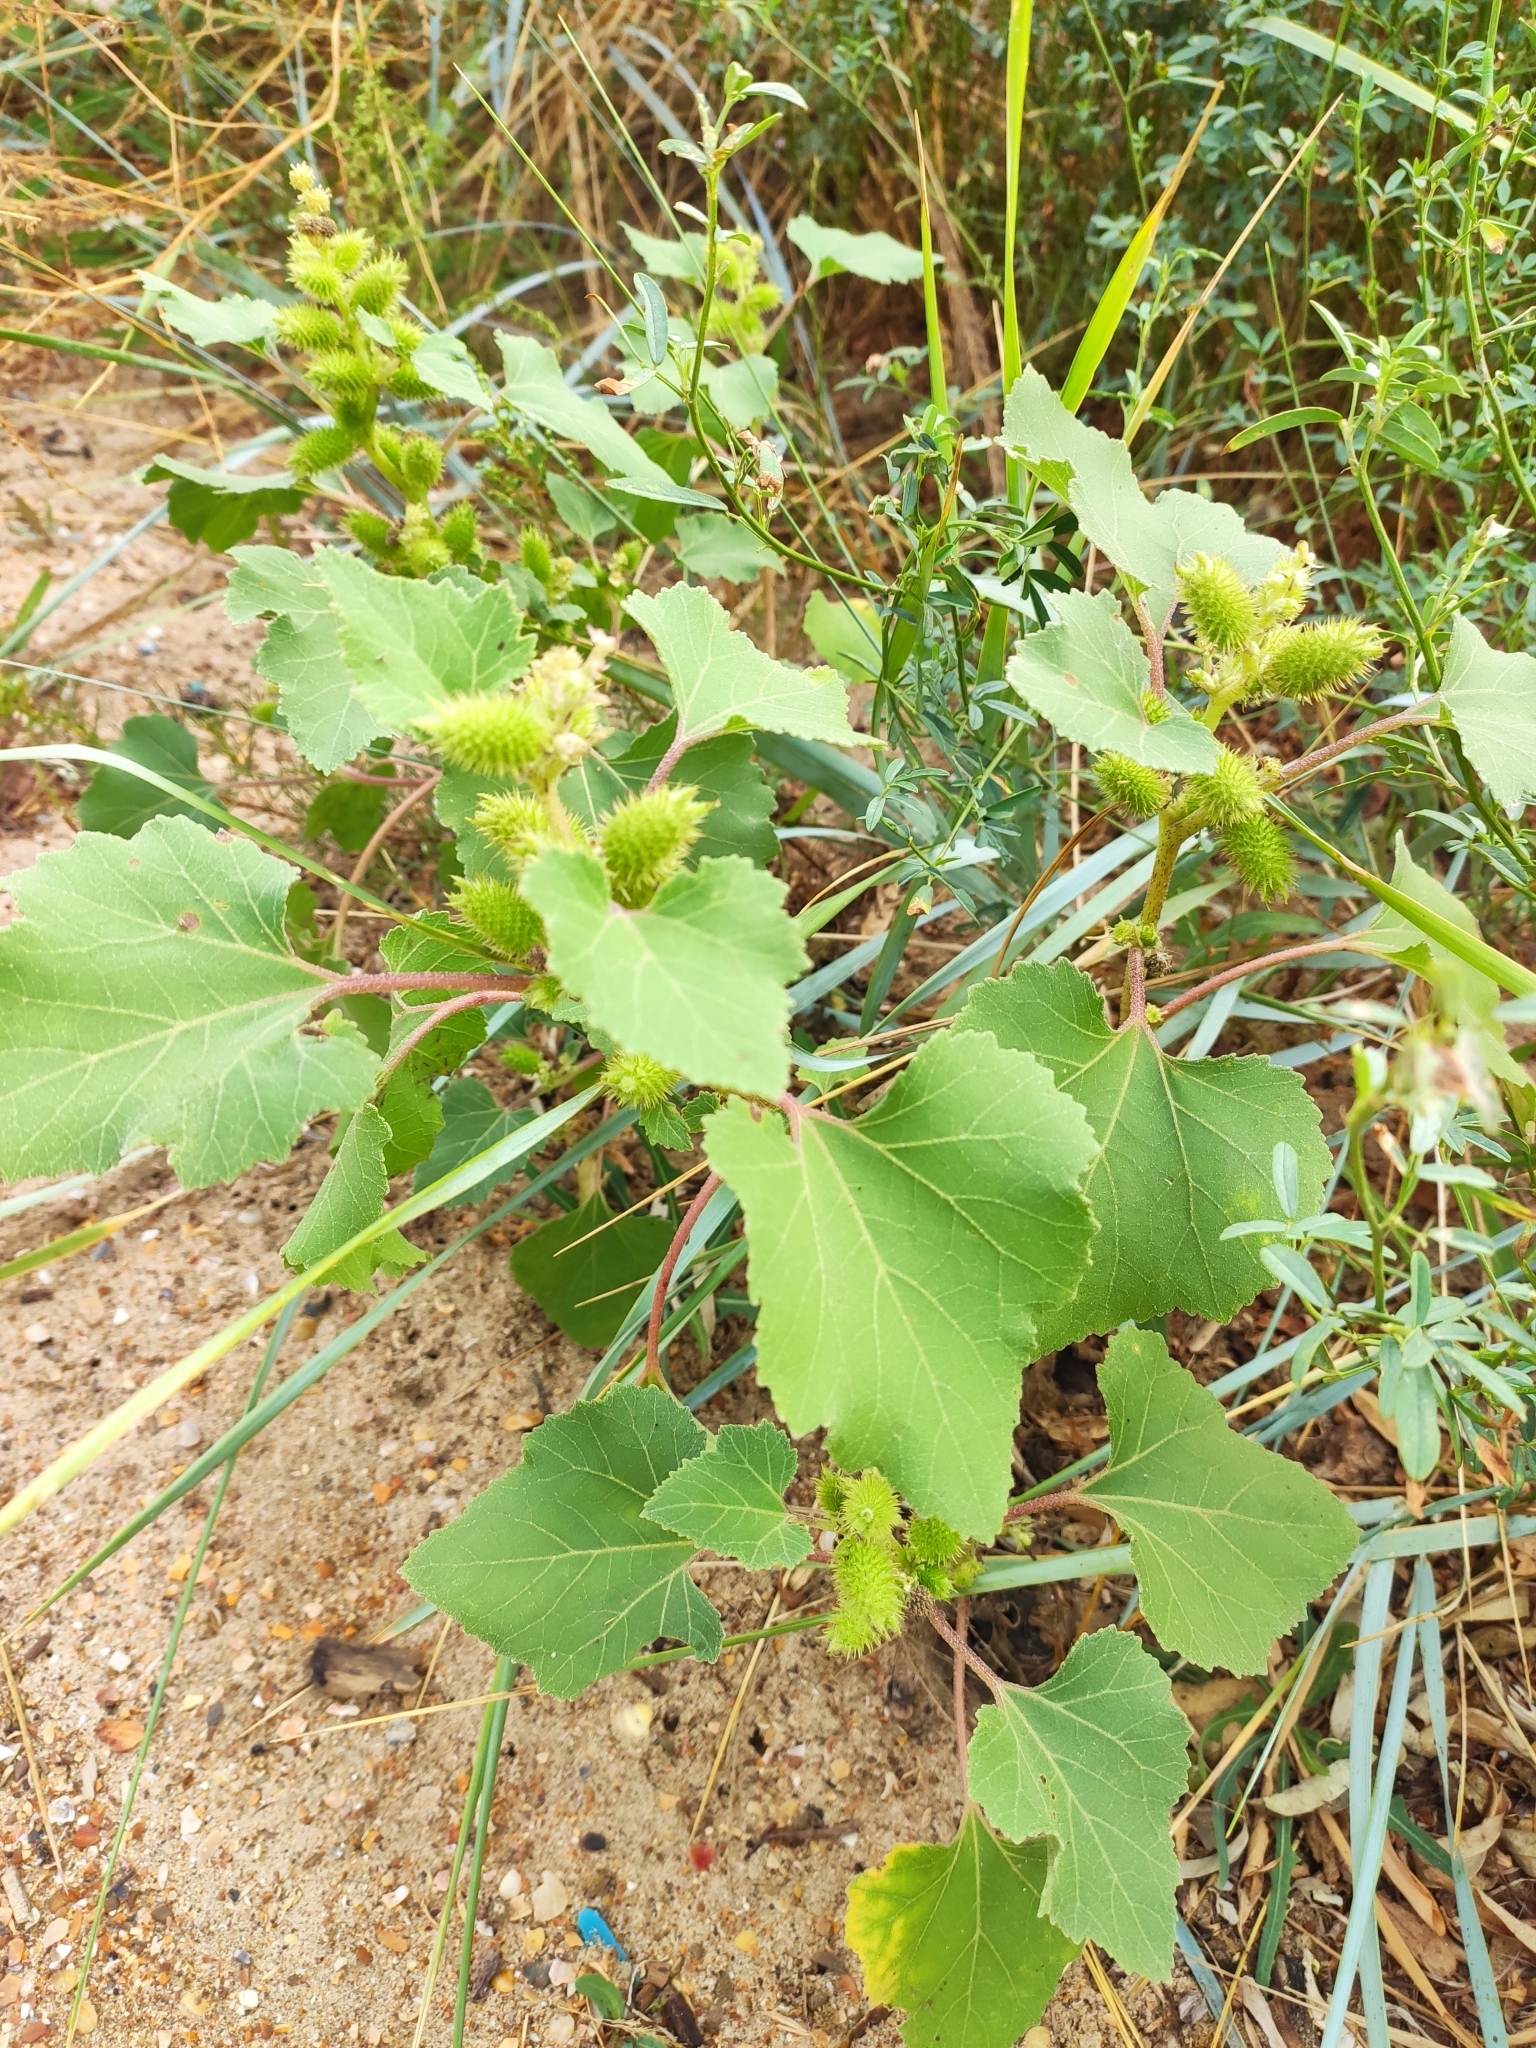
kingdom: Plantae
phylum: Tracheophyta
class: Magnoliopsida
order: Asterales
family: Asteraceae
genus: Xanthium
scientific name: Xanthium orientale
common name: Californian burr
